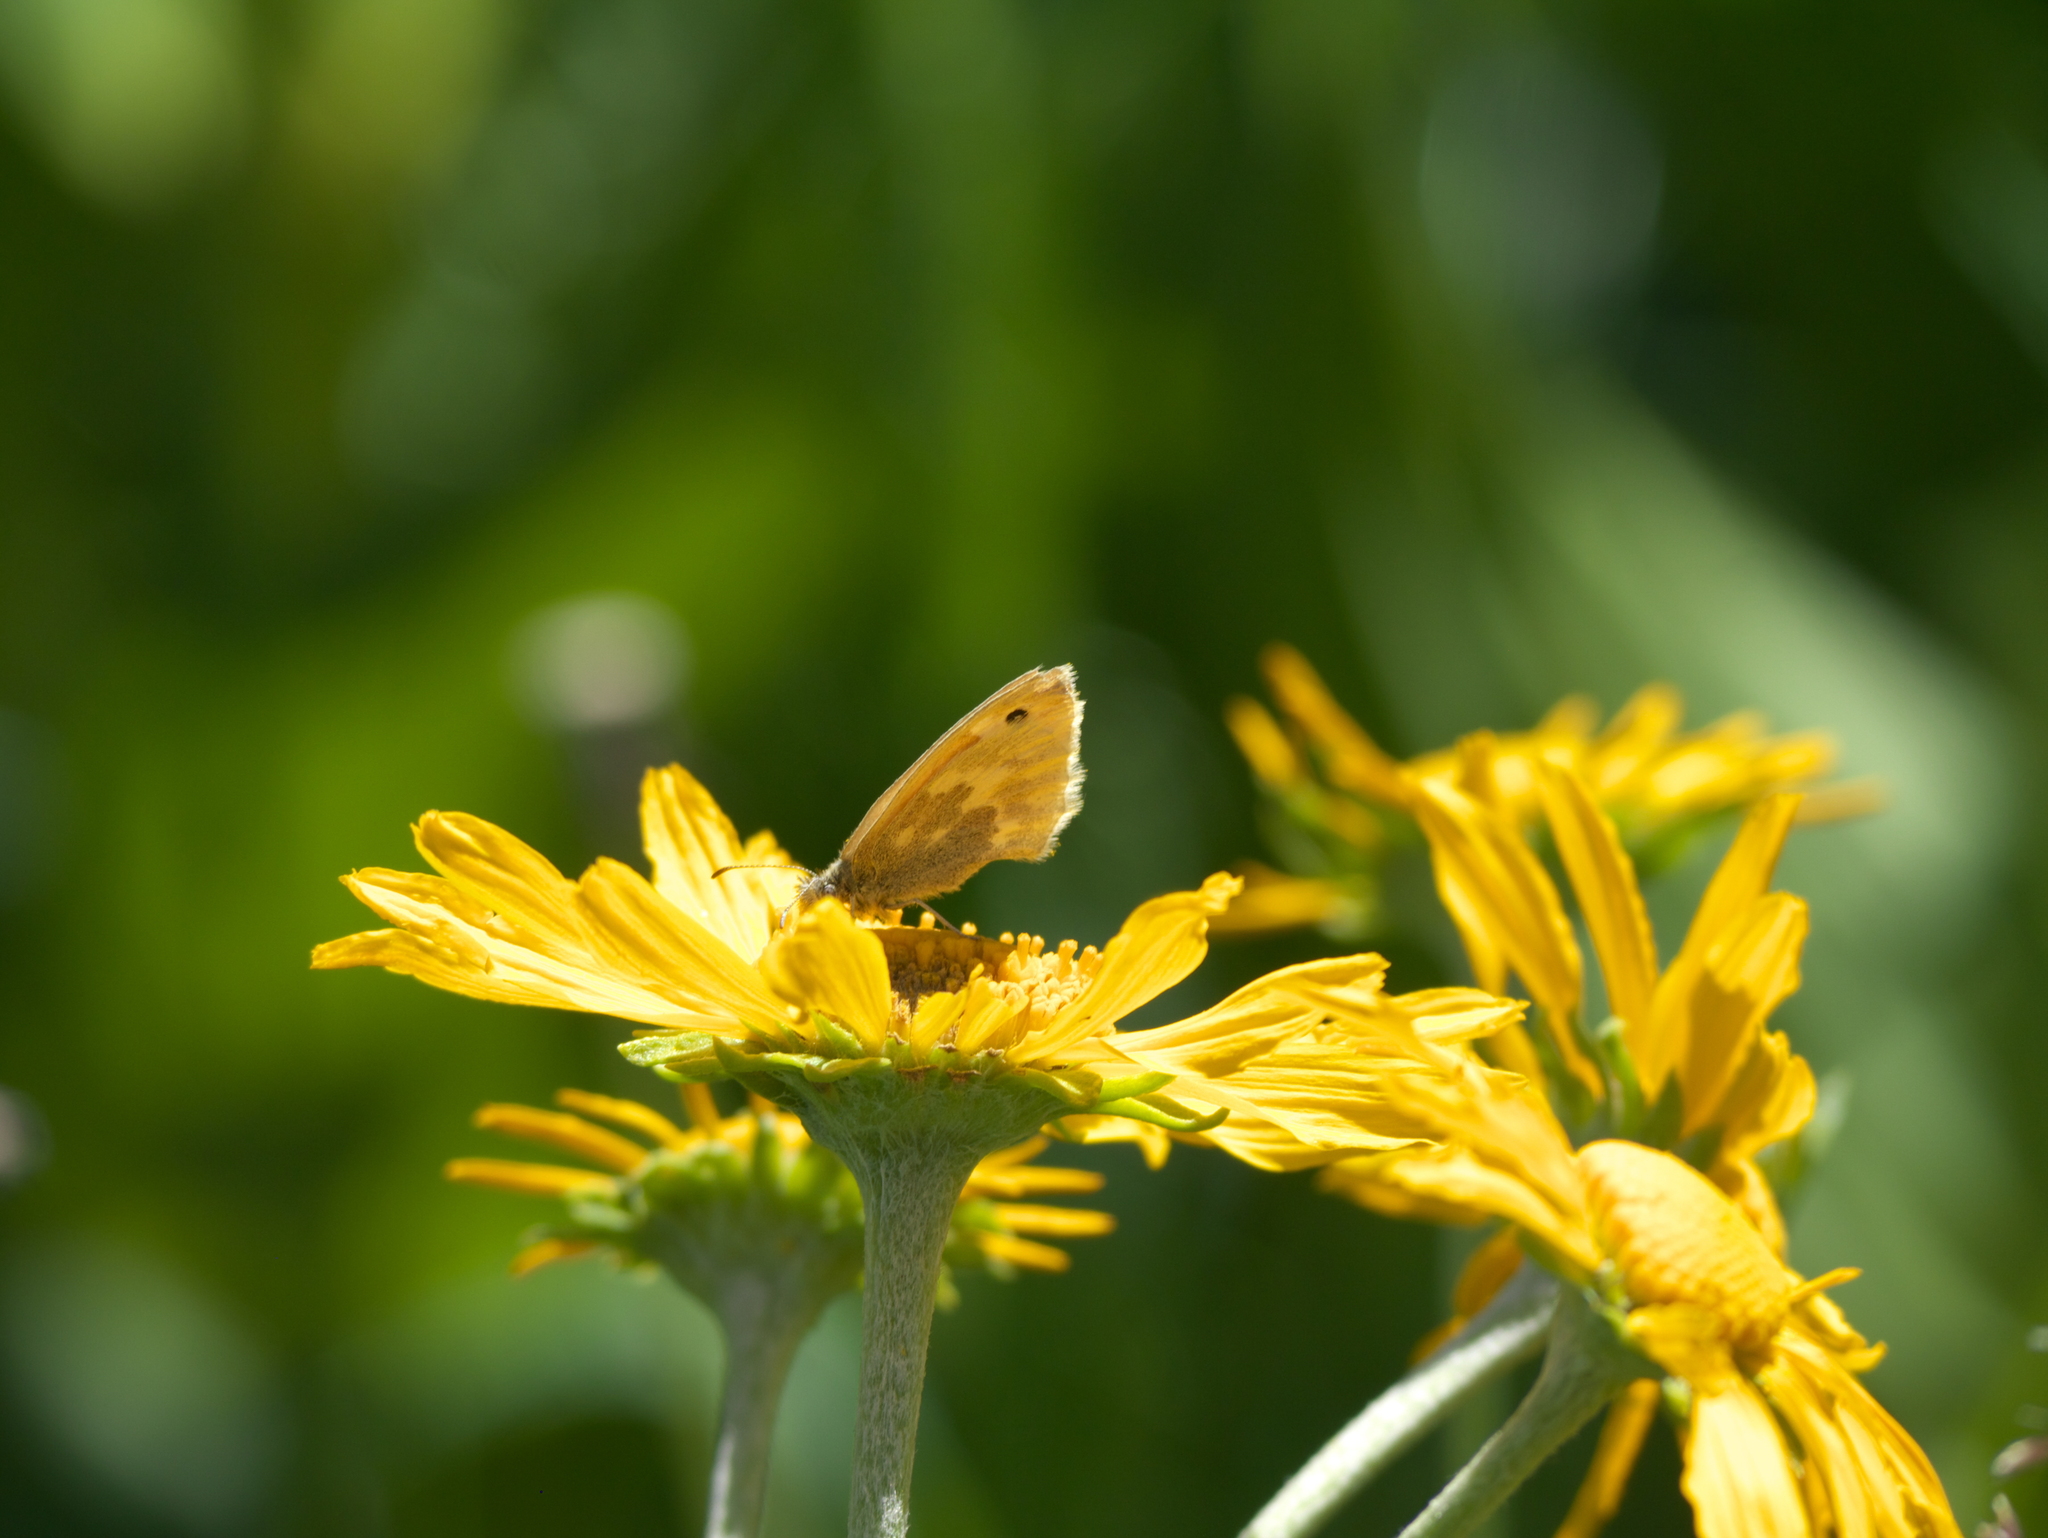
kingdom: Animalia
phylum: Arthropoda
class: Insecta
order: Lepidoptera
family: Nymphalidae
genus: Coenonympha
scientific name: Coenonympha california
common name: Common ringlet
